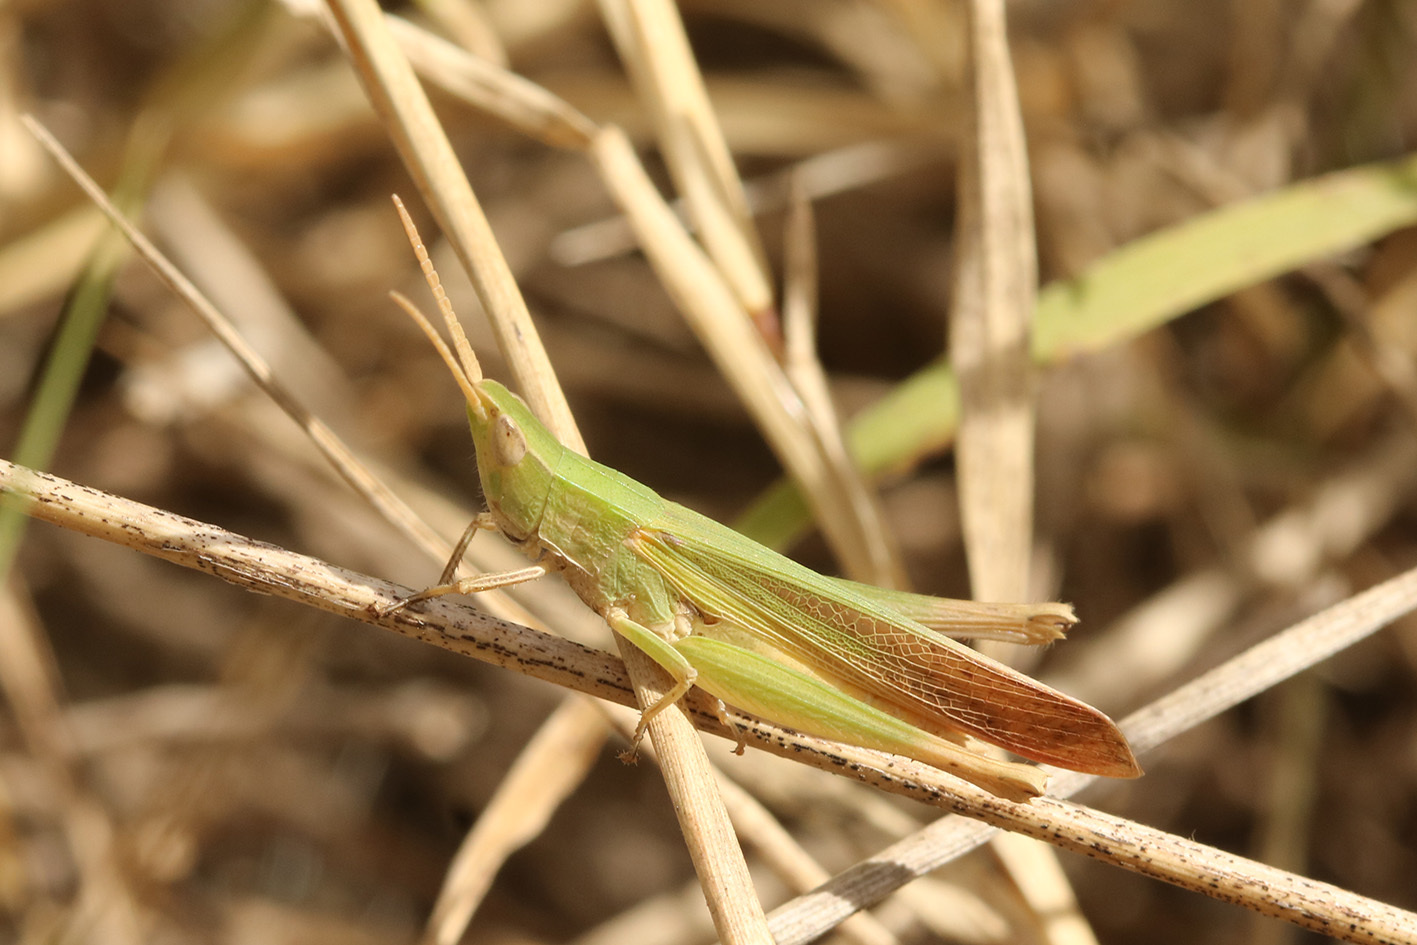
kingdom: Animalia
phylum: Arthropoda
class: Insecta
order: Orthoptera
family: Acrididae
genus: Allotruxalis
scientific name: Allotruxalis gracilis
